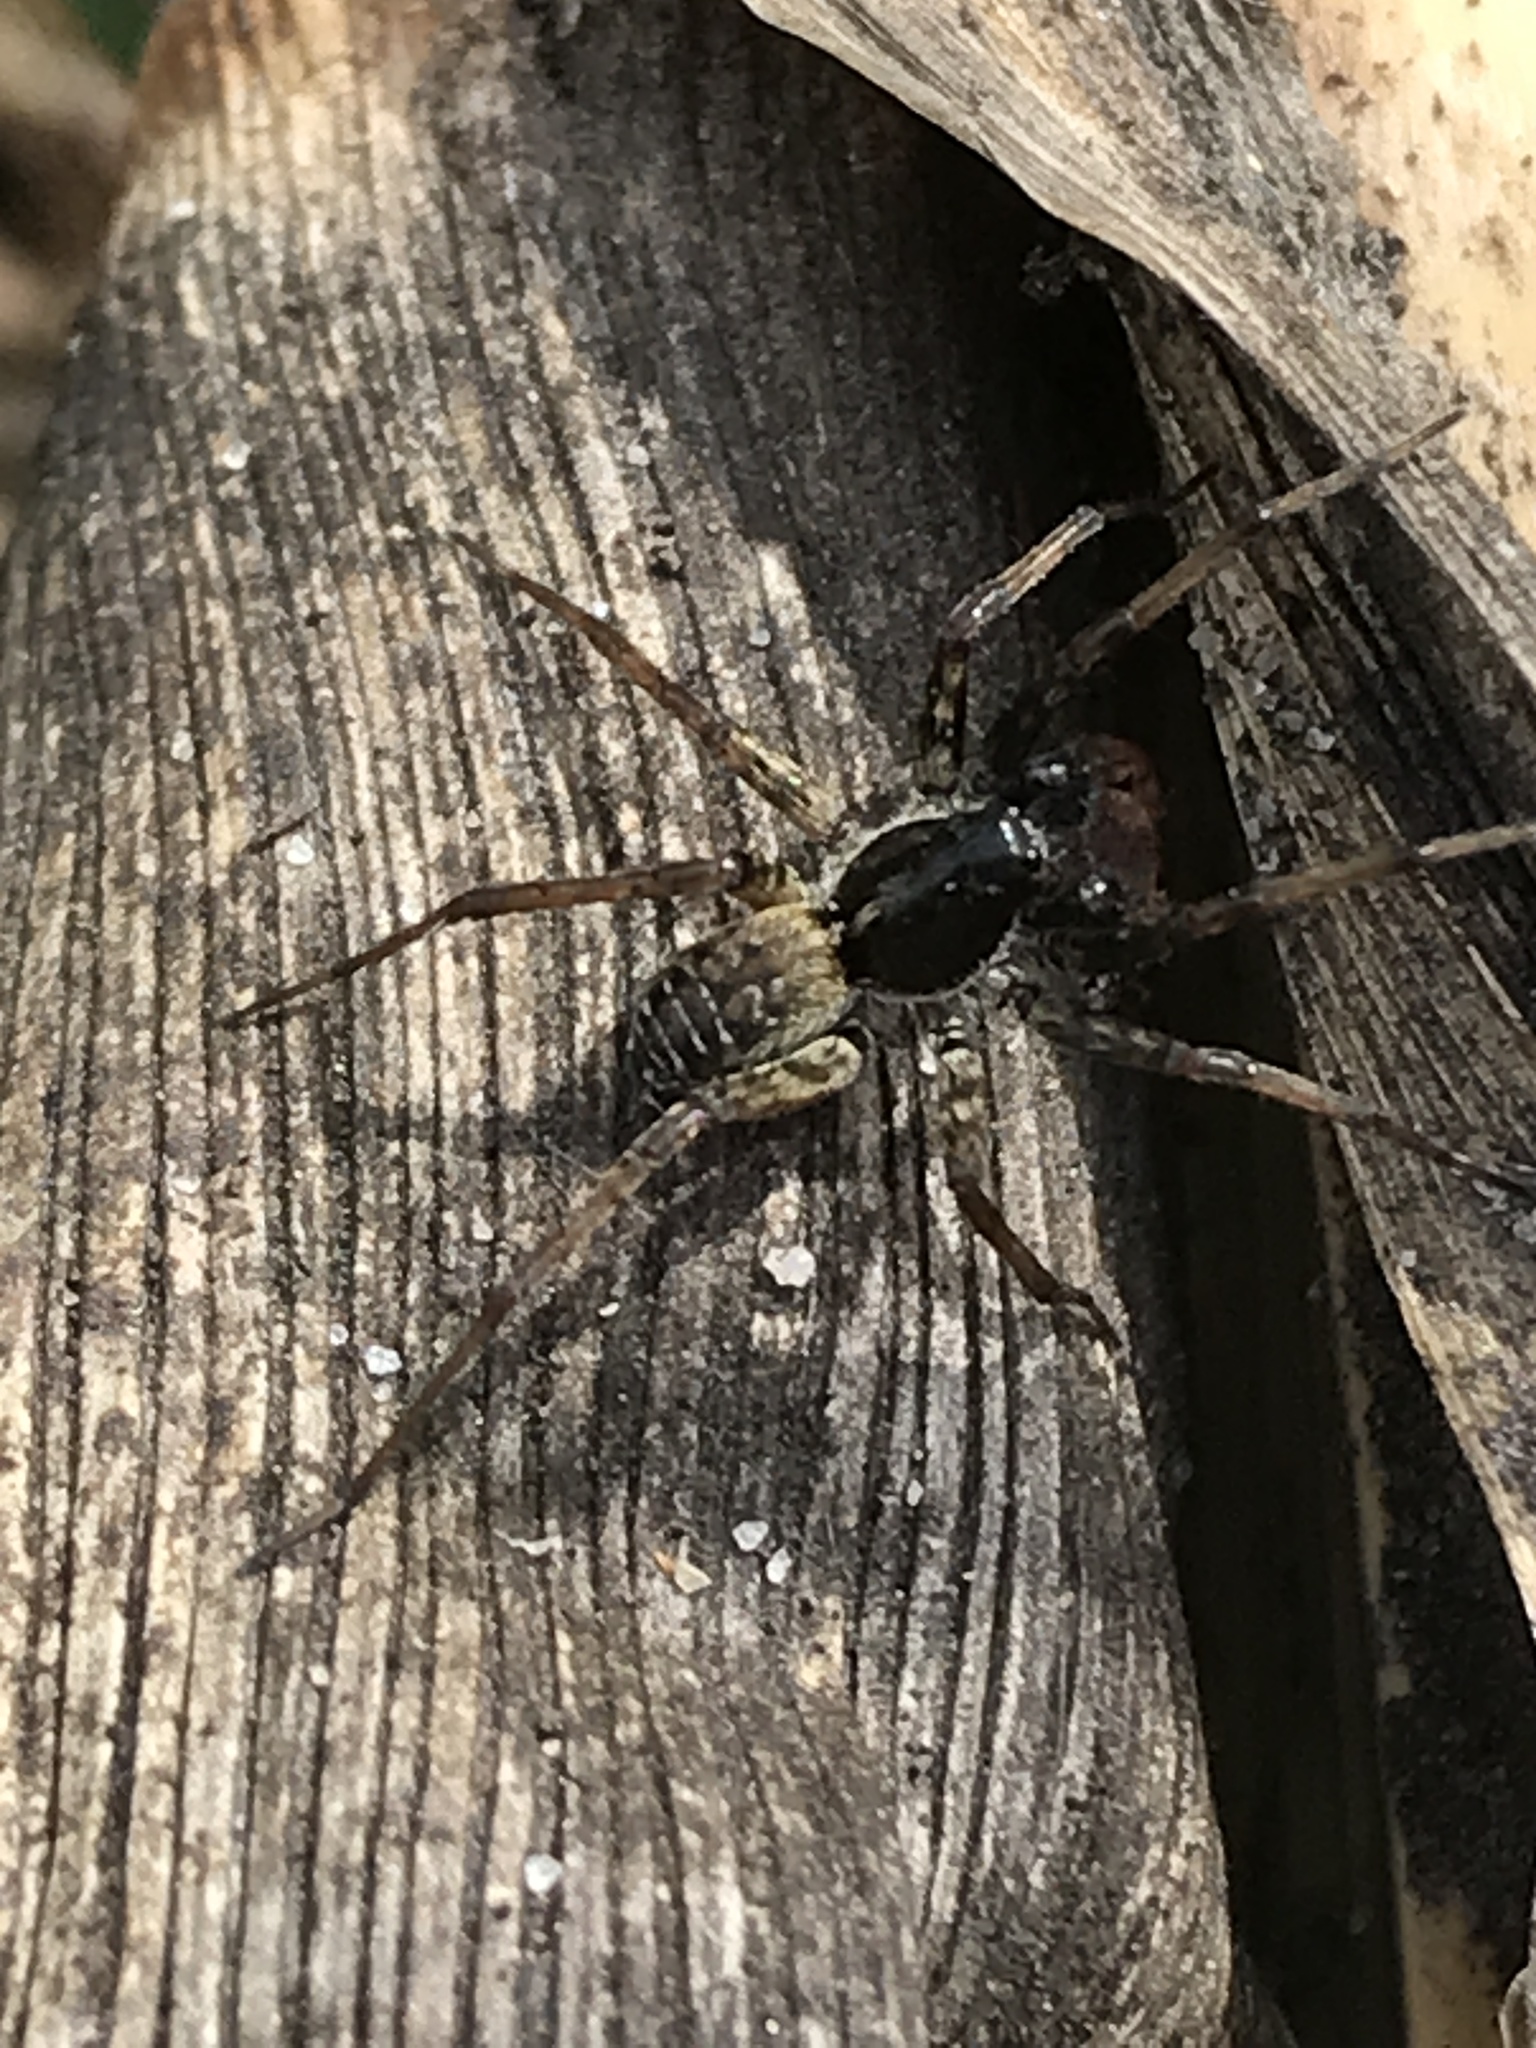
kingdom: Animalia
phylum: Arthropoda
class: Arachnida
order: Araneae
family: Lycosidae
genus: Pardosa
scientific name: Pardosa moesta
